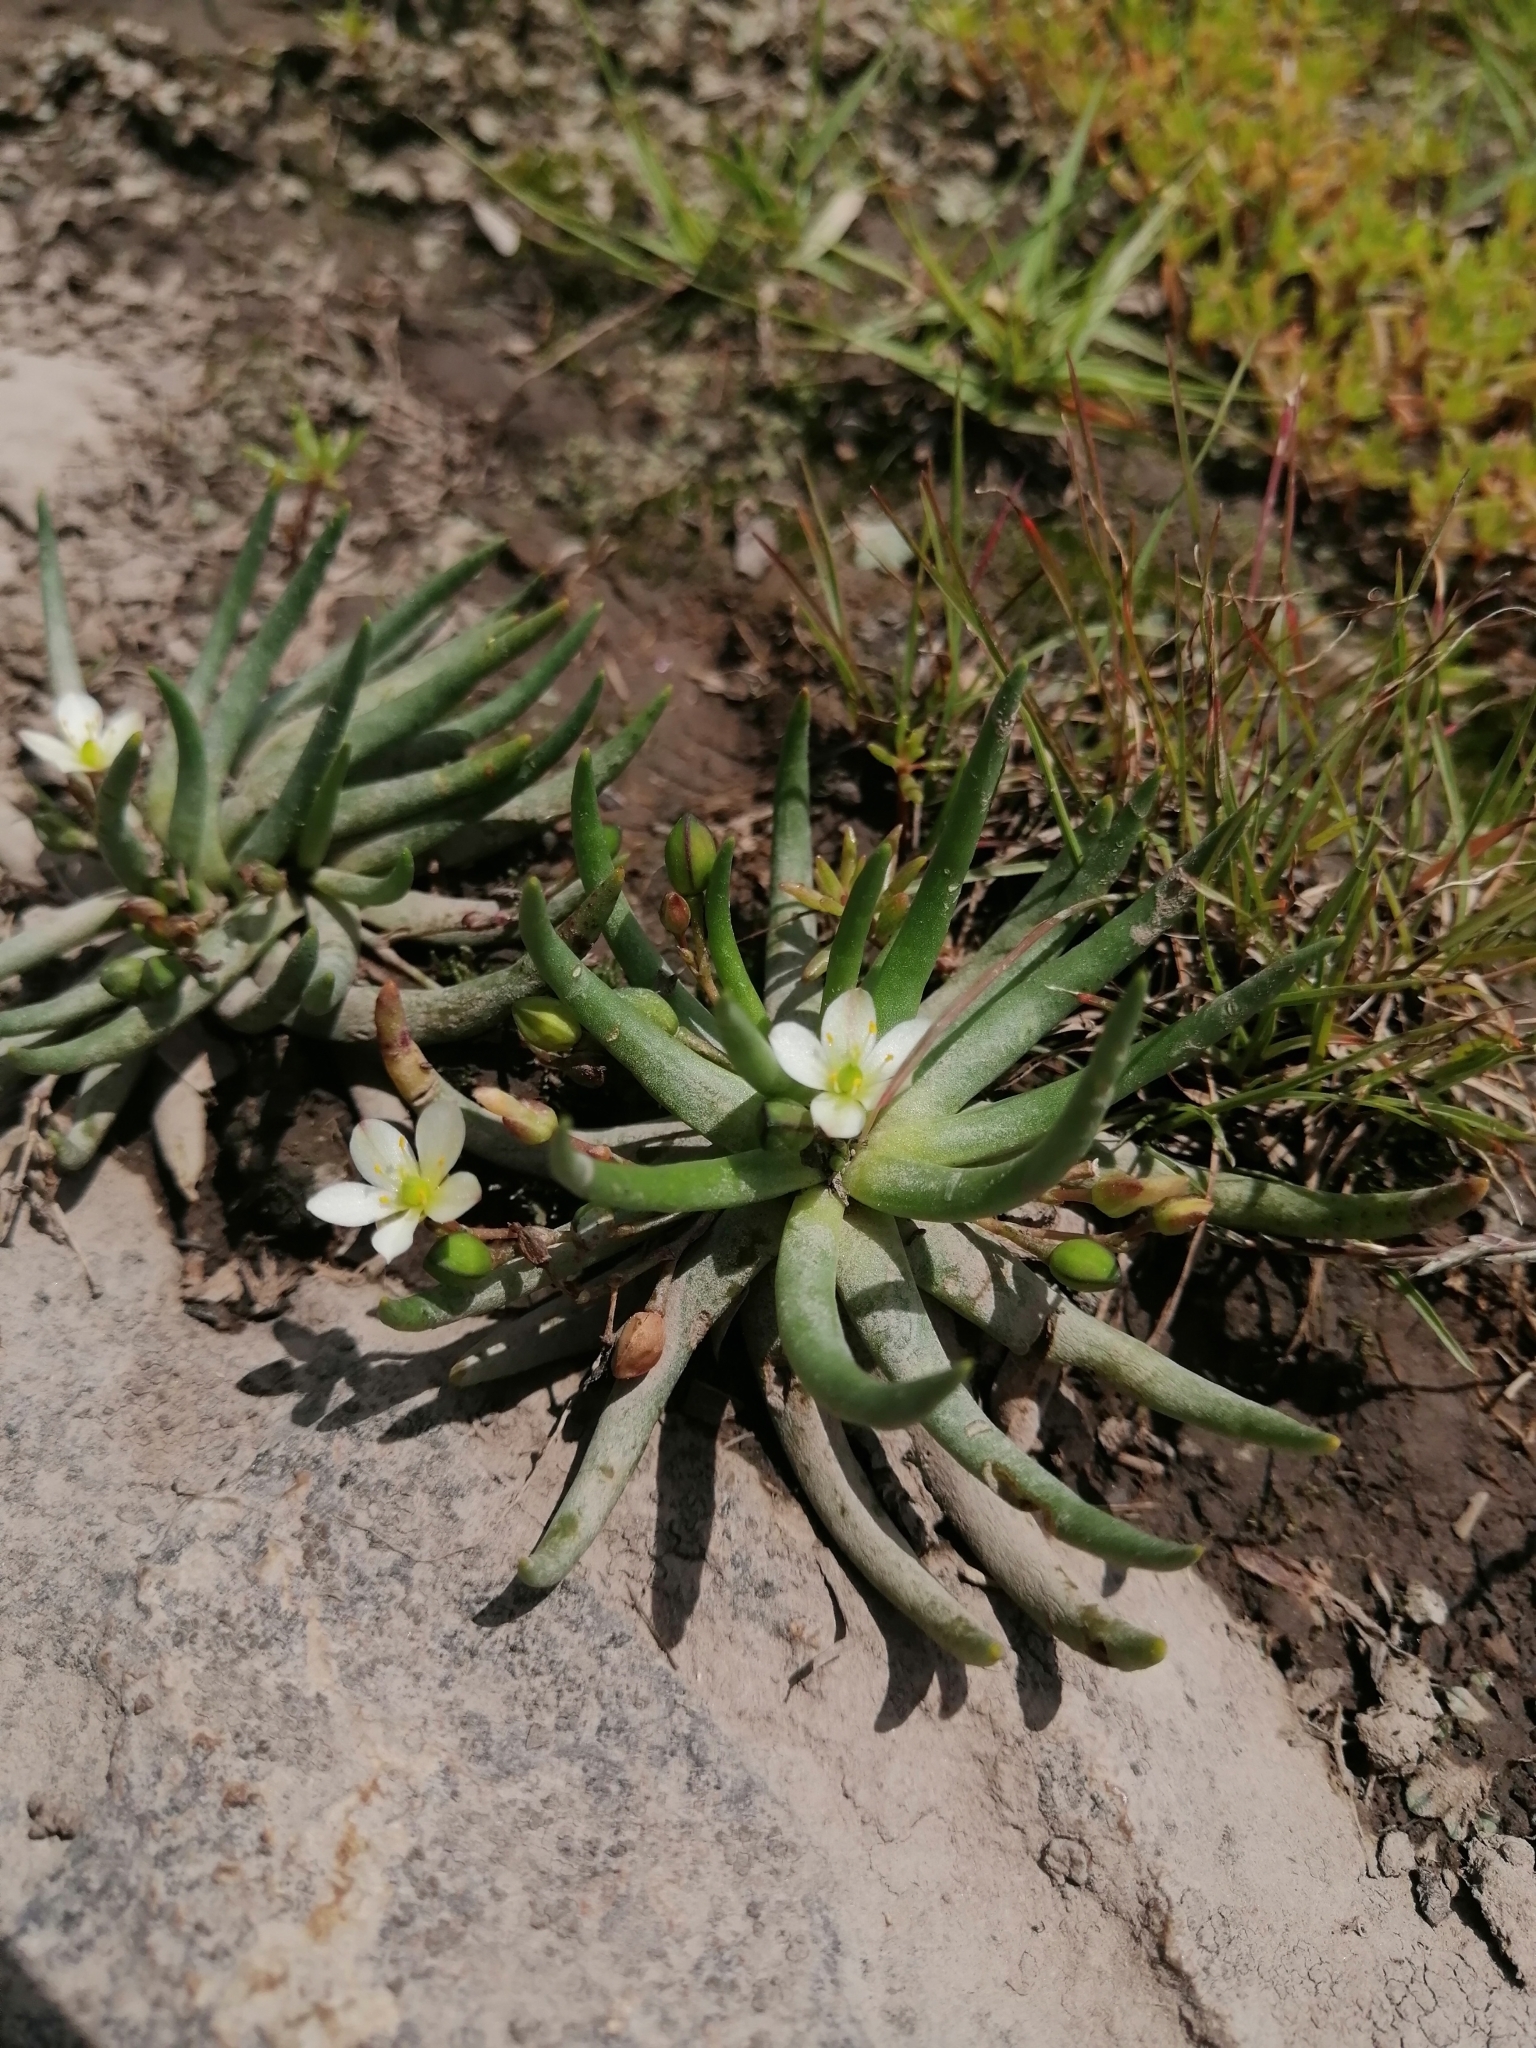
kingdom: Plantae
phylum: Tracheophyta
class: Magnoliopsida
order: Caryophyllales
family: Montiaceae
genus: Phemeranthus
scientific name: Phemeranthus napiformis
